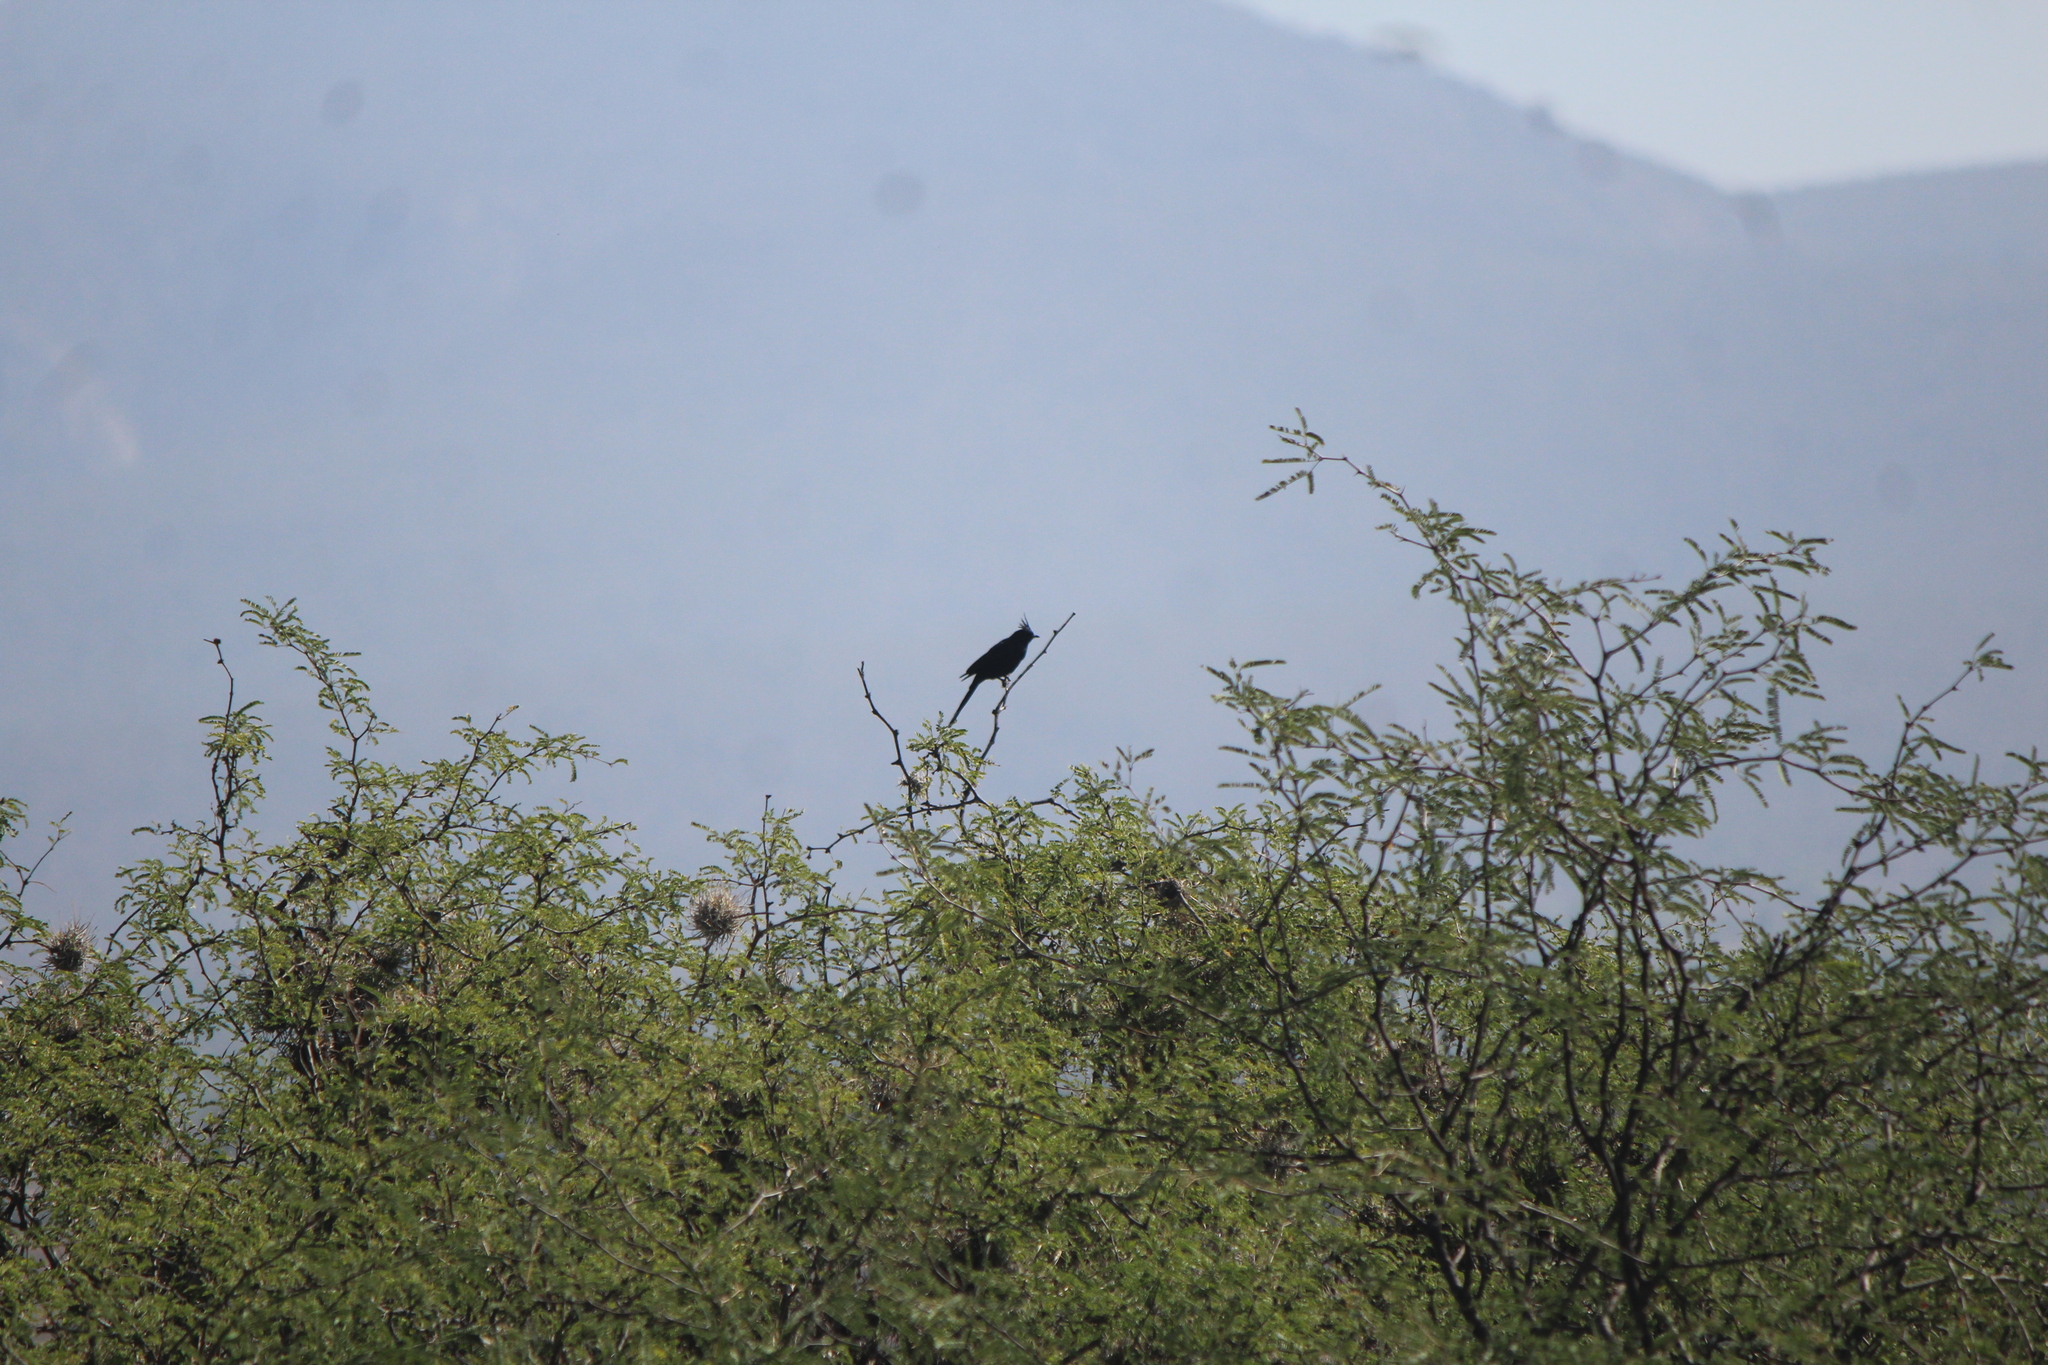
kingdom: Animalia
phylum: Chordata
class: Aves
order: Passeriformes
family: Ptilogonatidae
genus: Phainopepla
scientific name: Phainopepla nitens
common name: Phainopepla
